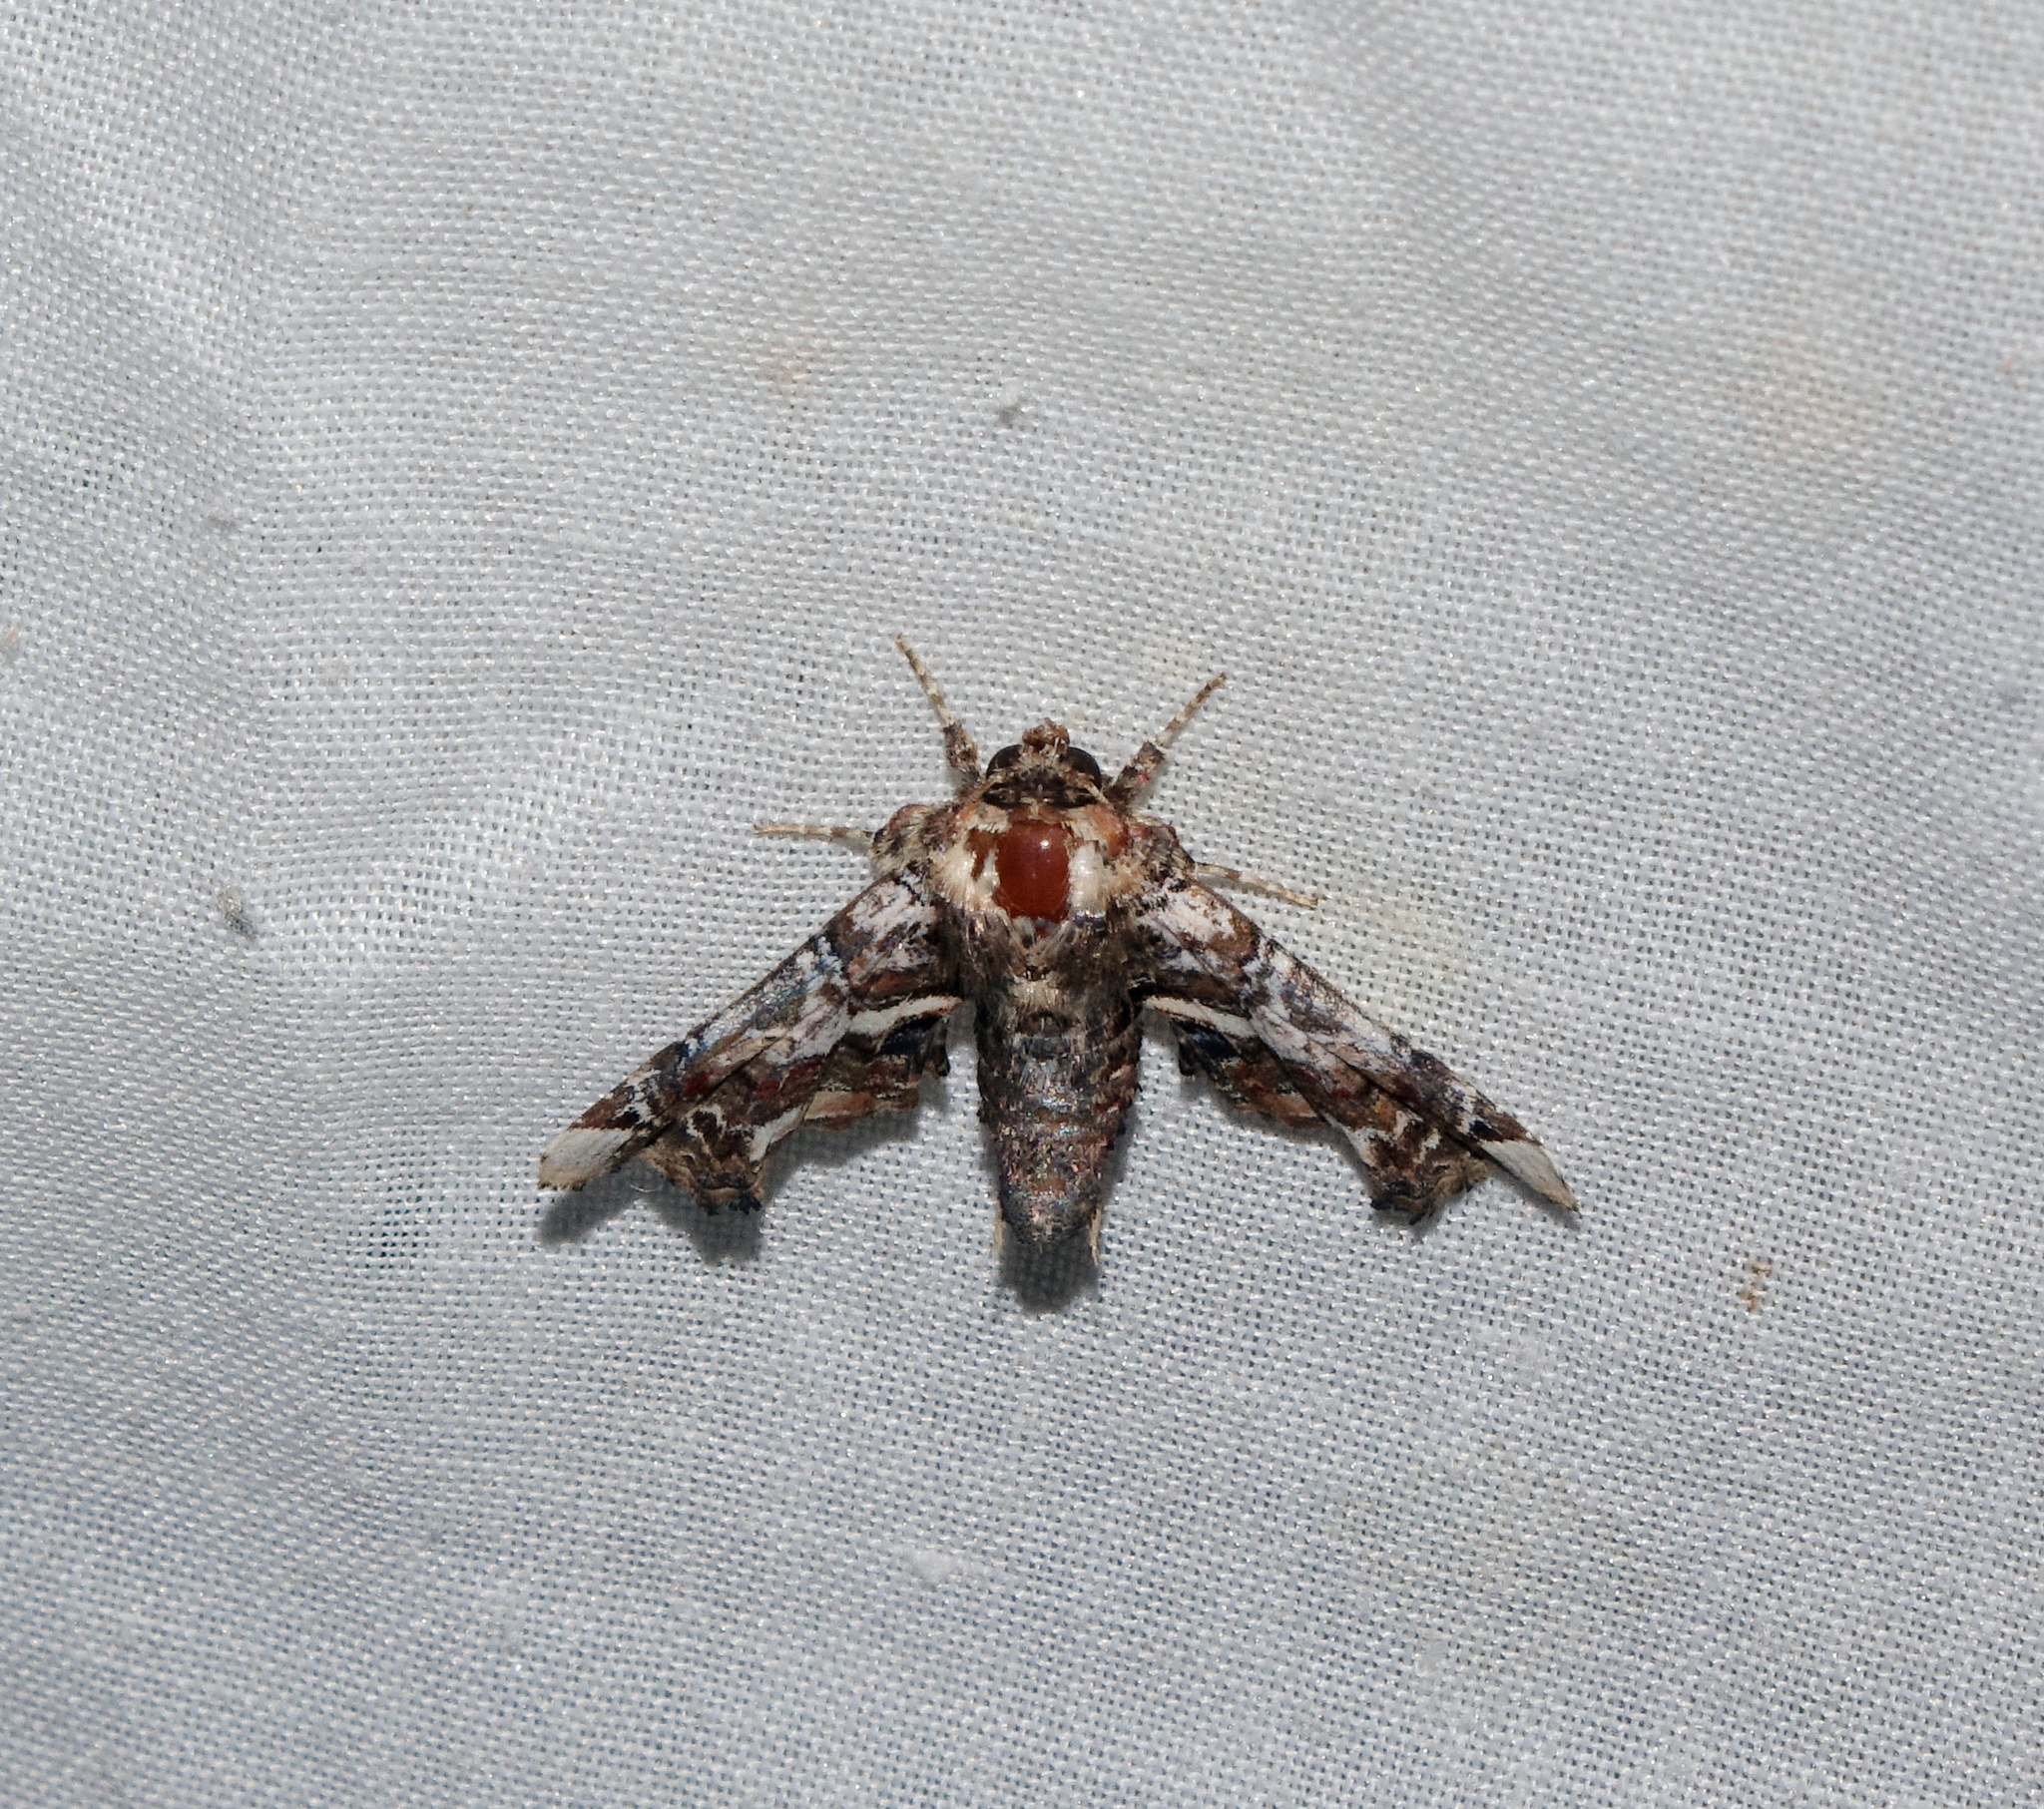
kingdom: Animalia
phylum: Arthropoda
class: Insecta
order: Lepidoptera
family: Euteliidae
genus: Eutelia
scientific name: Eutelia adulatrix
